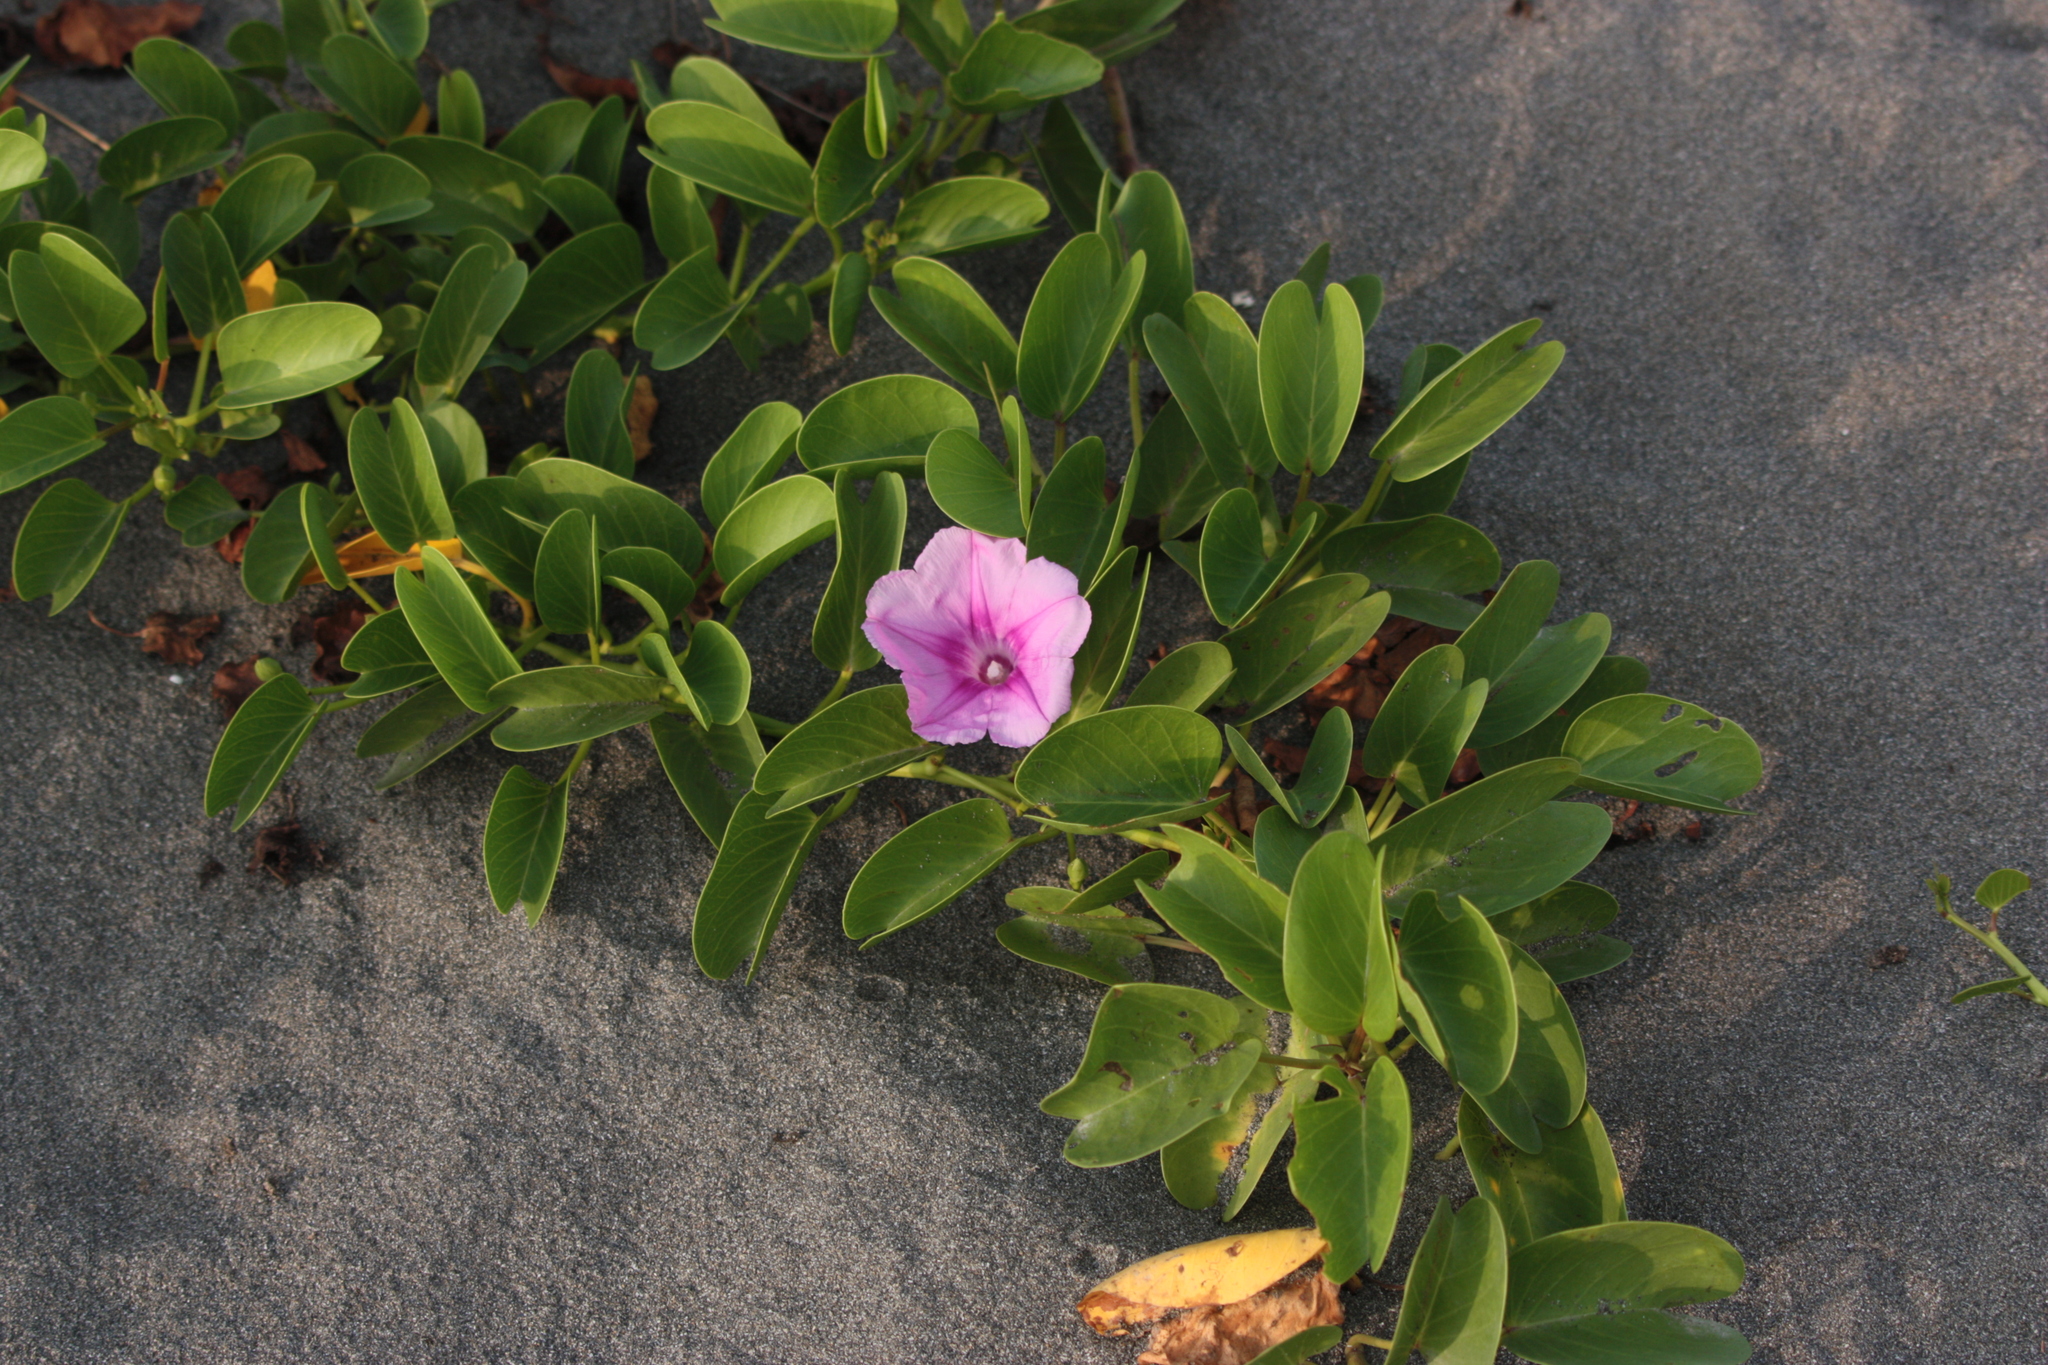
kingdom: Plantae
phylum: Tracheophyta
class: Magnoliopsida
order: Solanales
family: Convolvulaceae
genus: Ipomoea
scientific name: Ipomoea pes-caprae
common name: Beach morning glory
